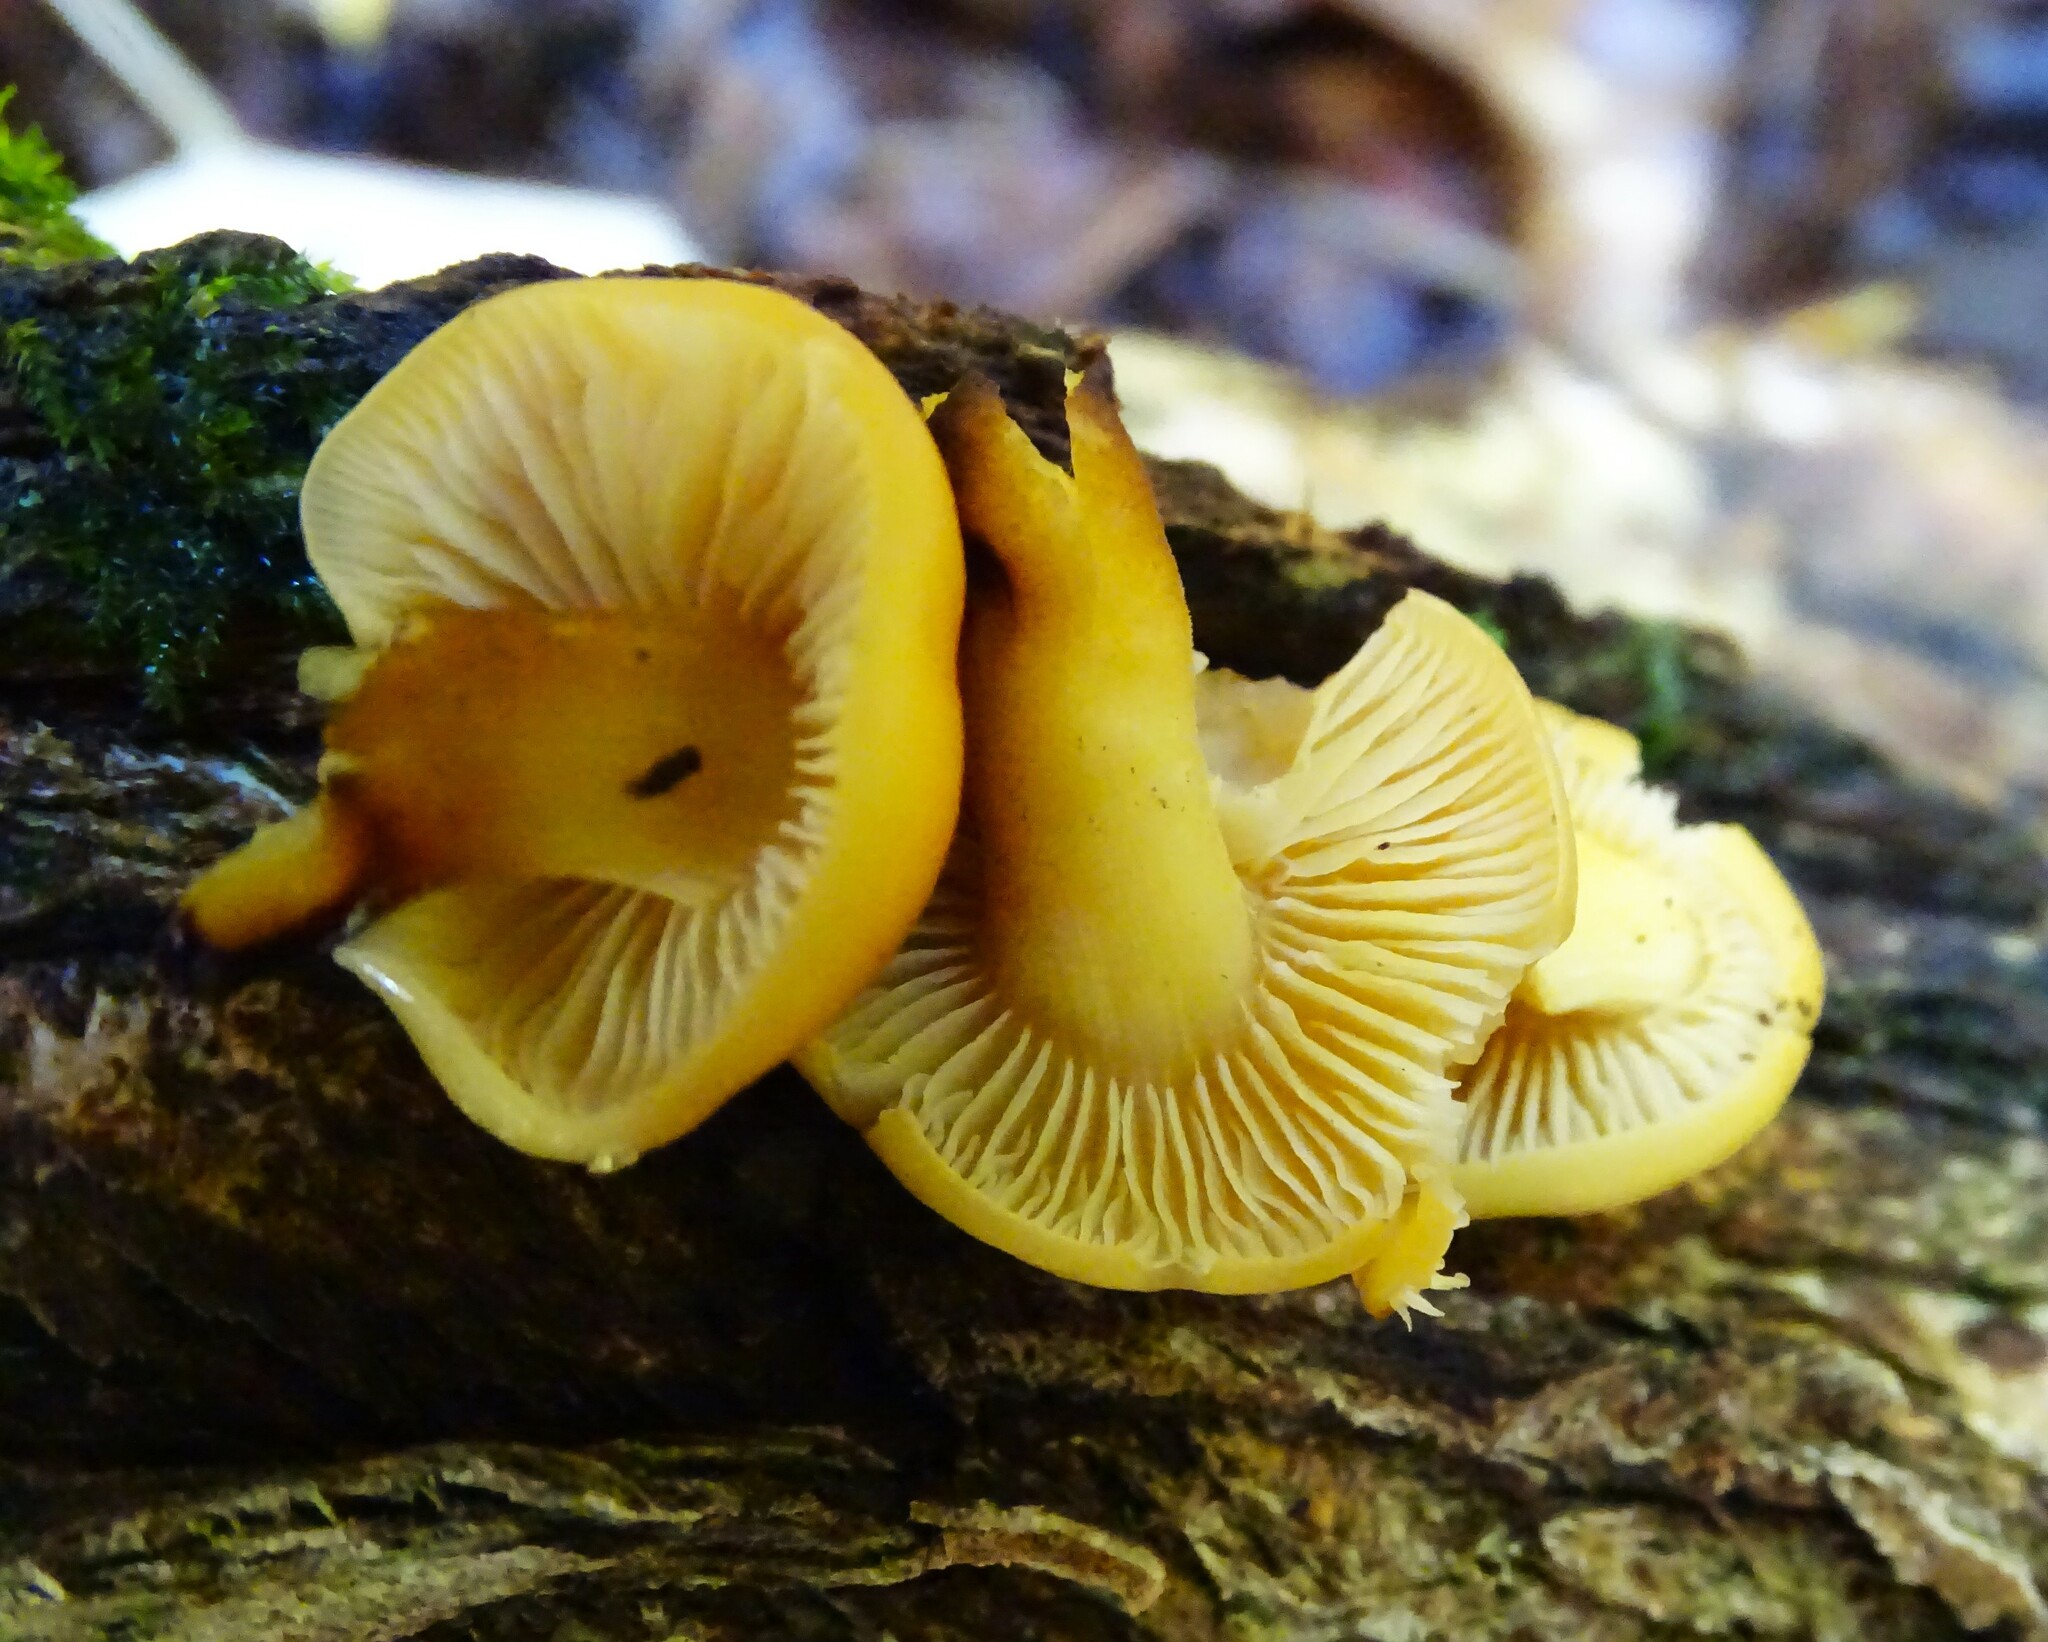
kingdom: Fungi
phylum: Basidiomycota
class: Agaricomycetes
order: Agaricales
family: Physalacriaceae
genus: Flammulina
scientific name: Flammulina velutipes
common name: Velvet shank
